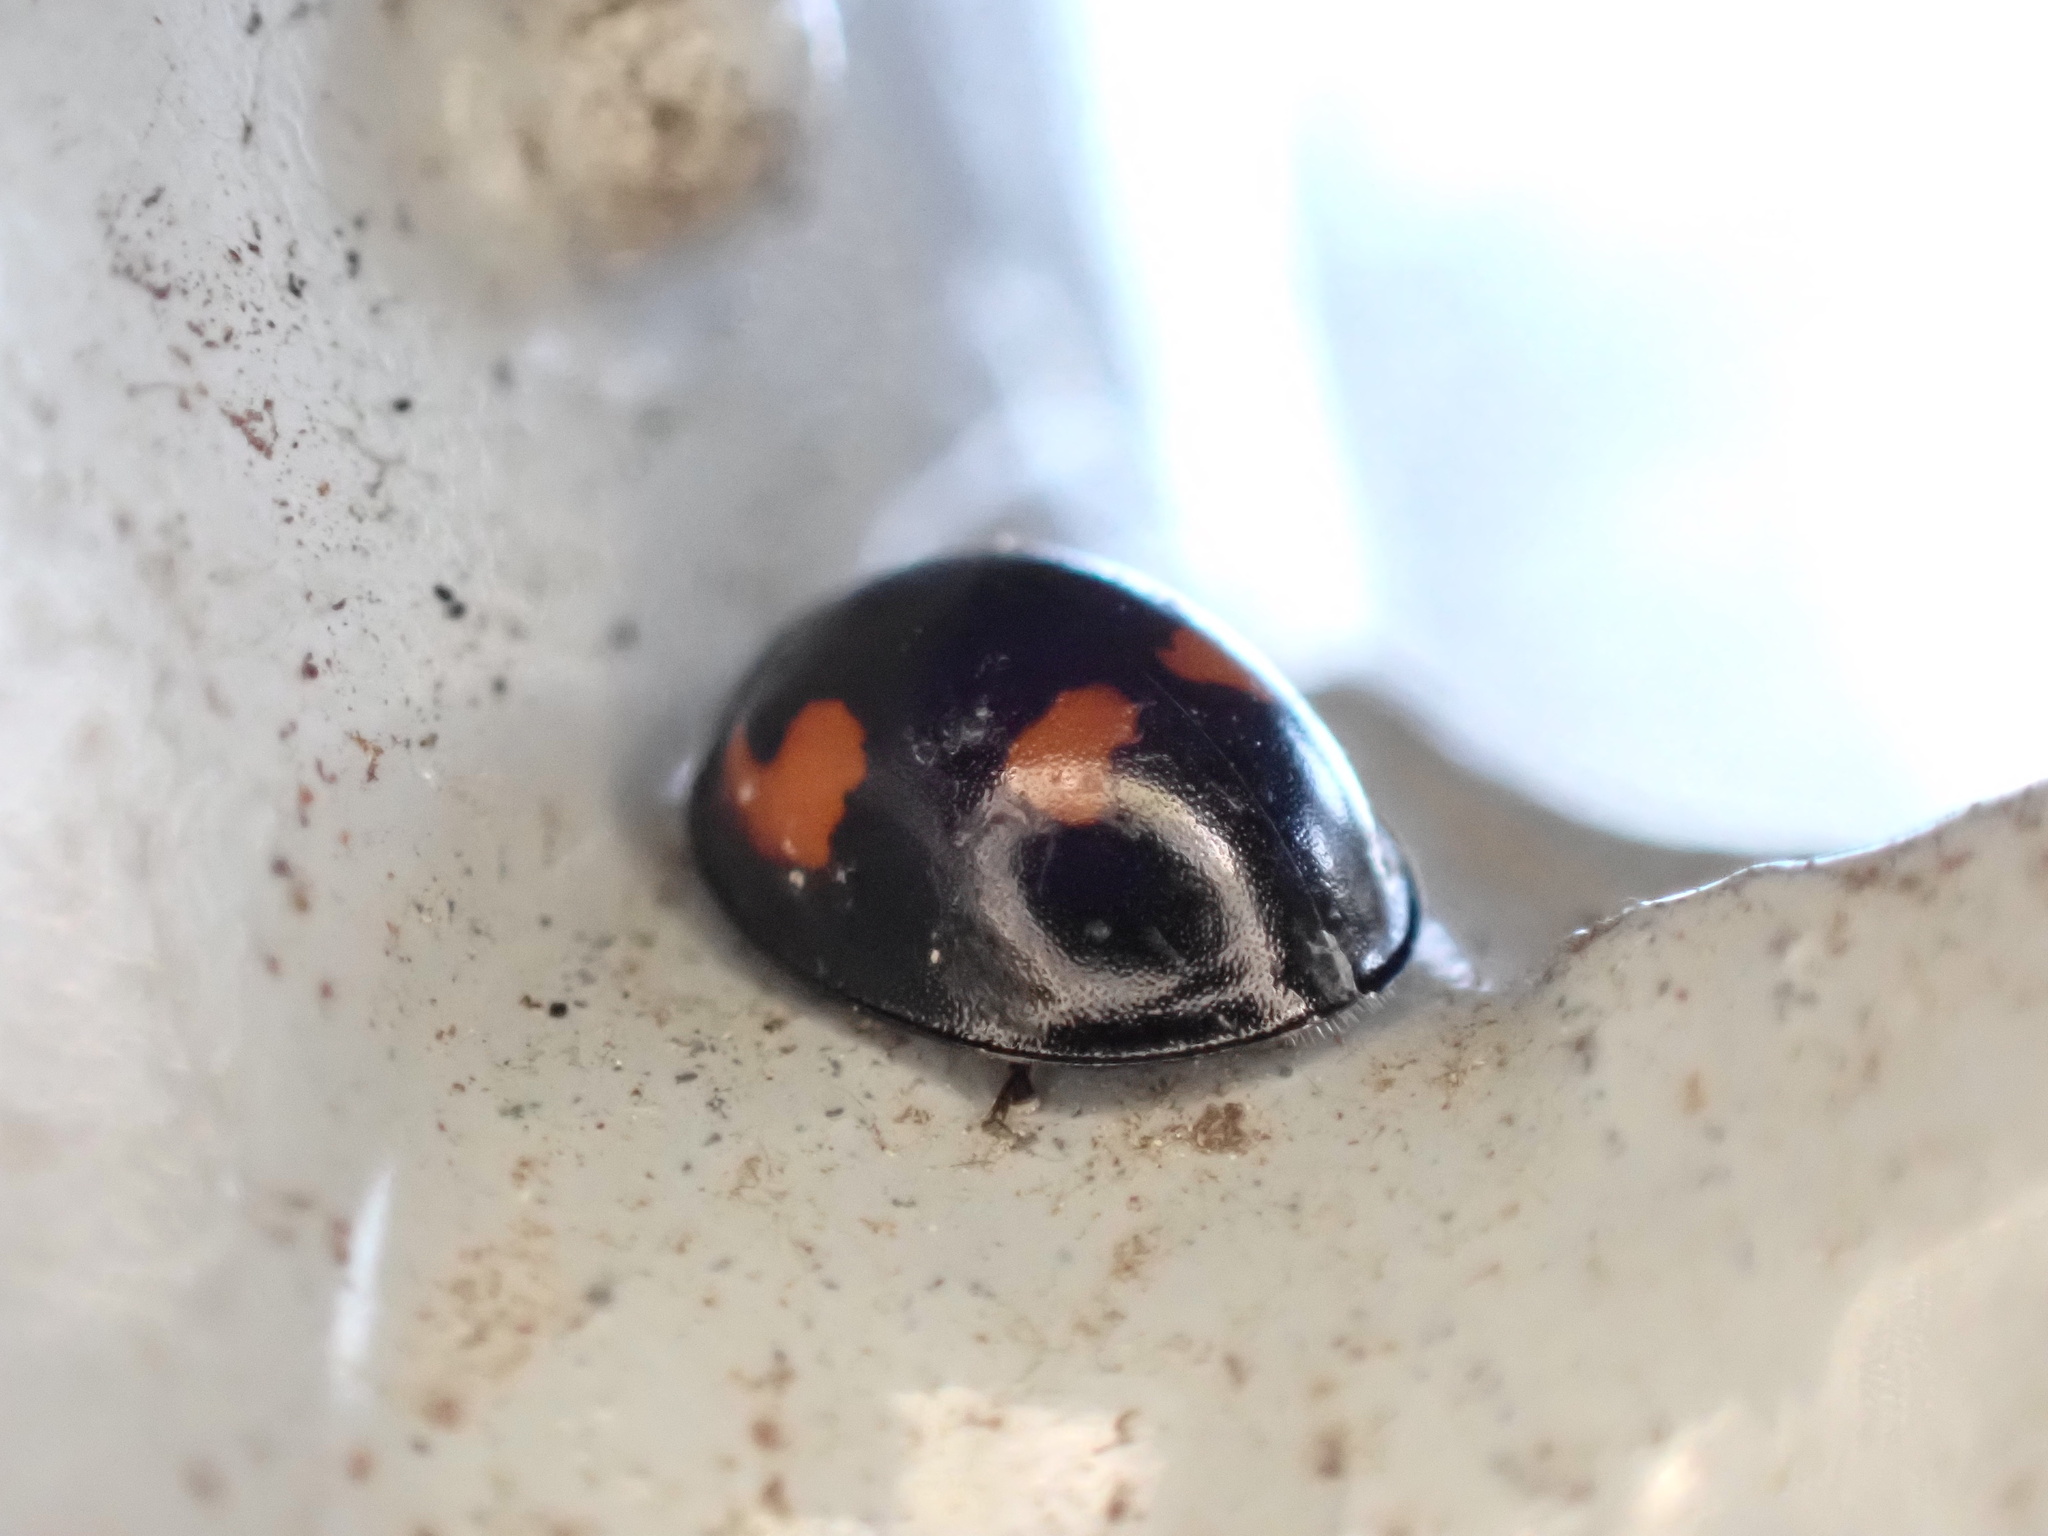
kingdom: Animalia
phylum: Arthropoda
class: Insecta
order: Coleoptera
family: Coccinellidae
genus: Brumus
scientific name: Brumus quadripustulatus
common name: Ladybird beetle
